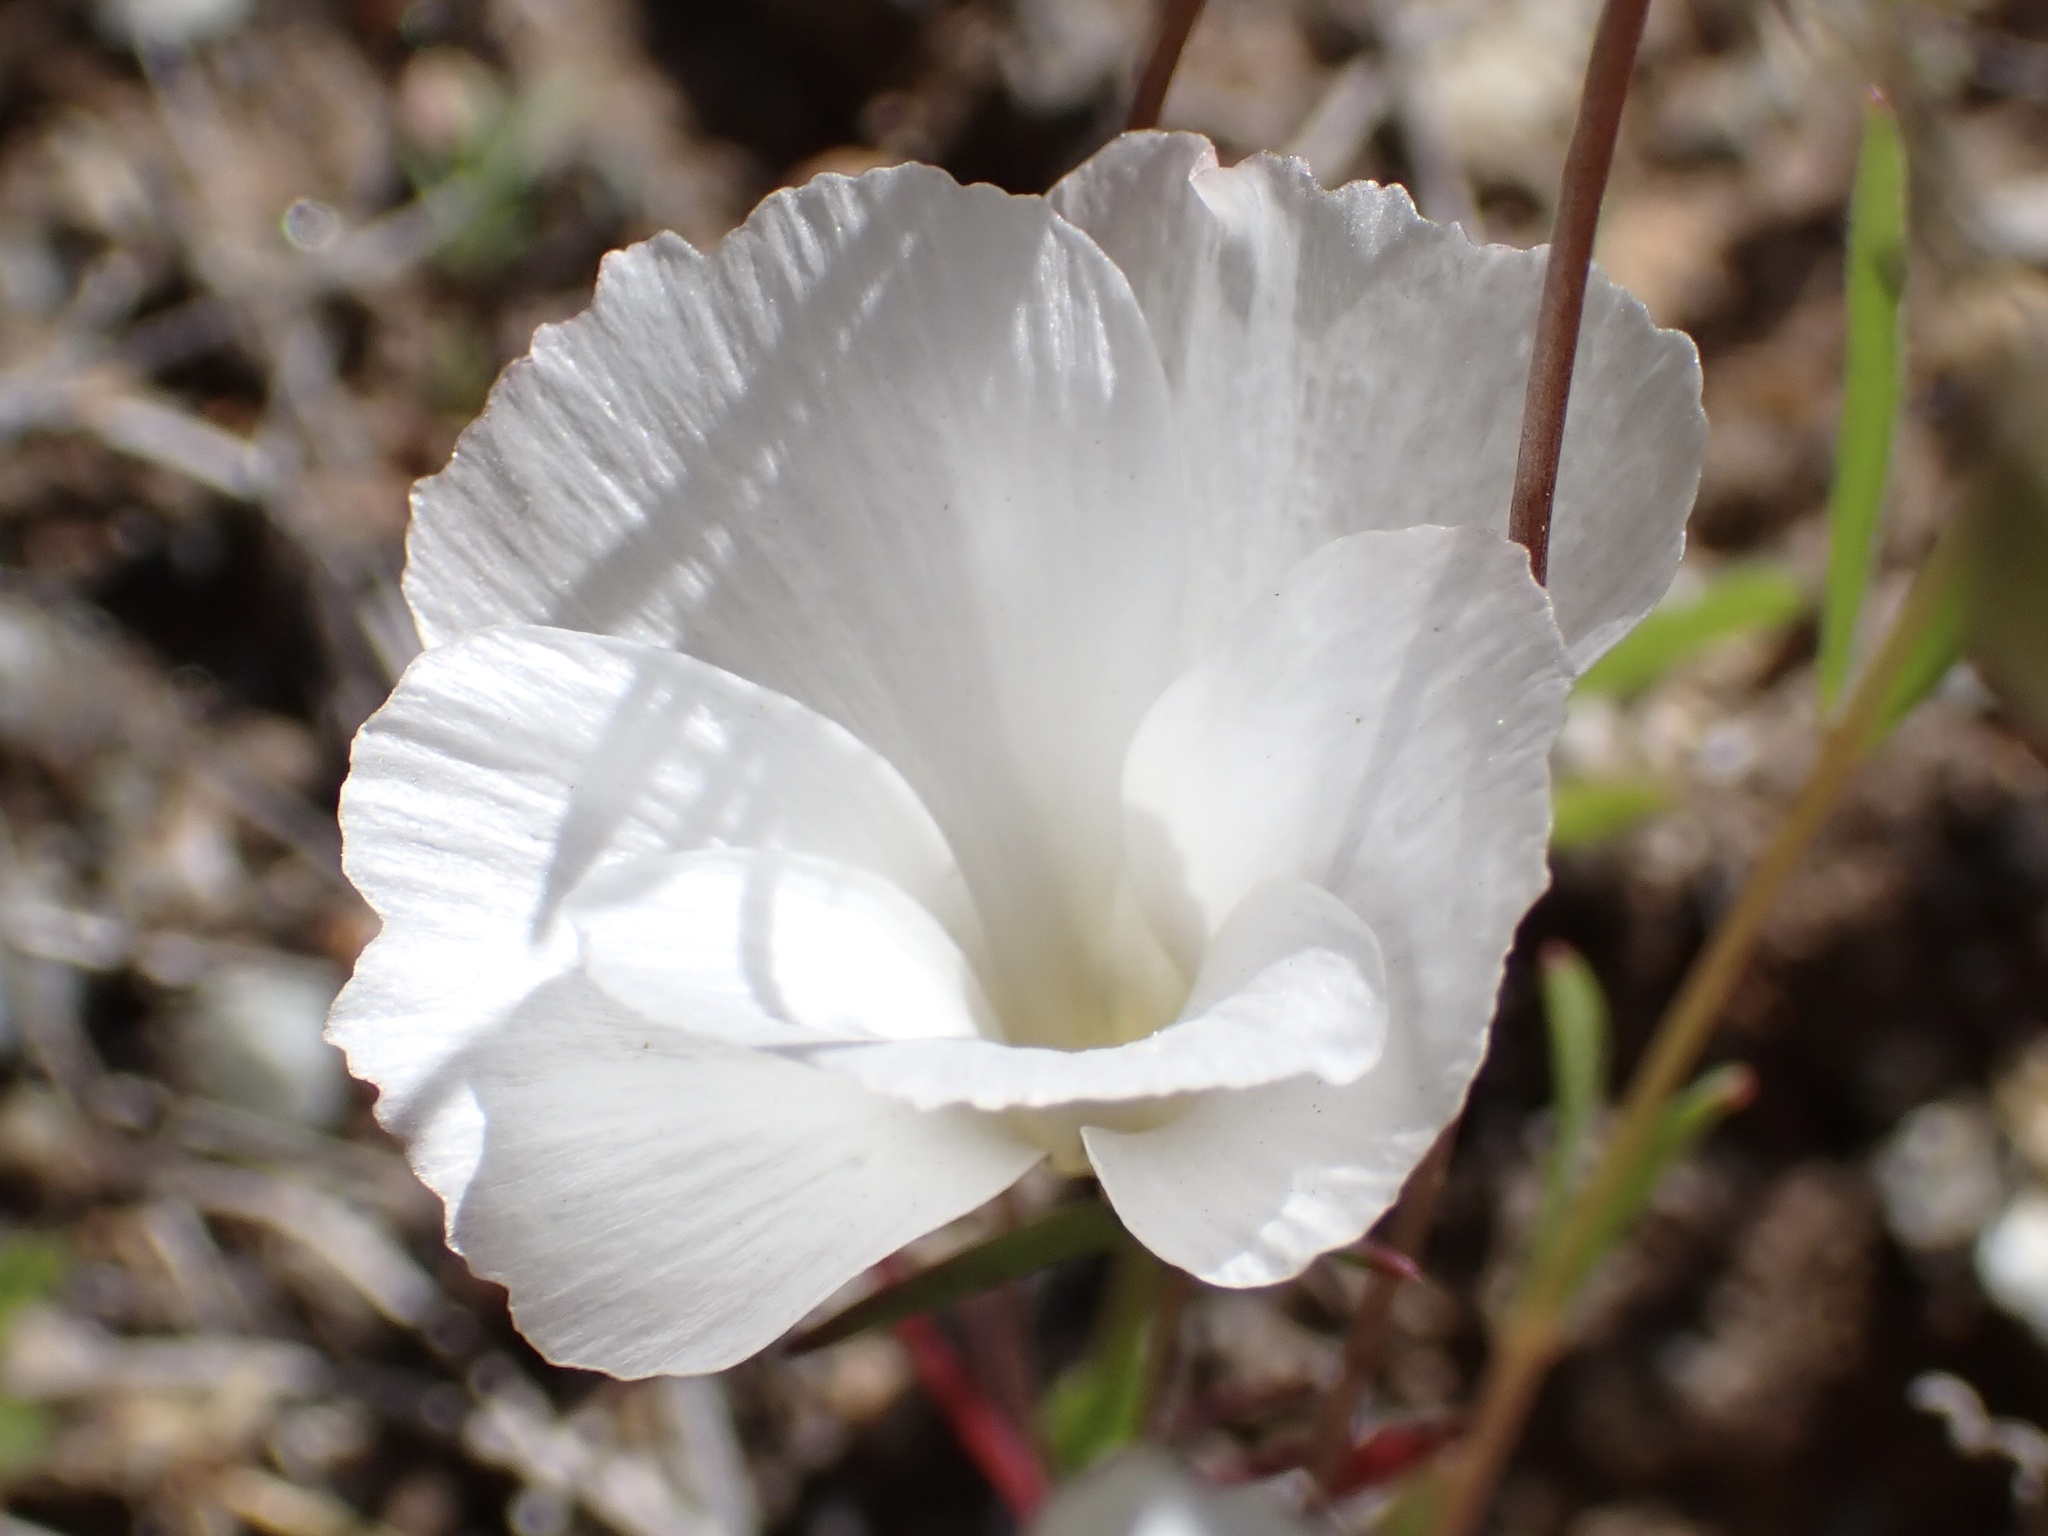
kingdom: Plantae
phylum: Tracheophyta
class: Magnoliopsida
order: Ericales
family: Polemoniaceae
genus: Linanthus
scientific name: Linanthus dichotomus
